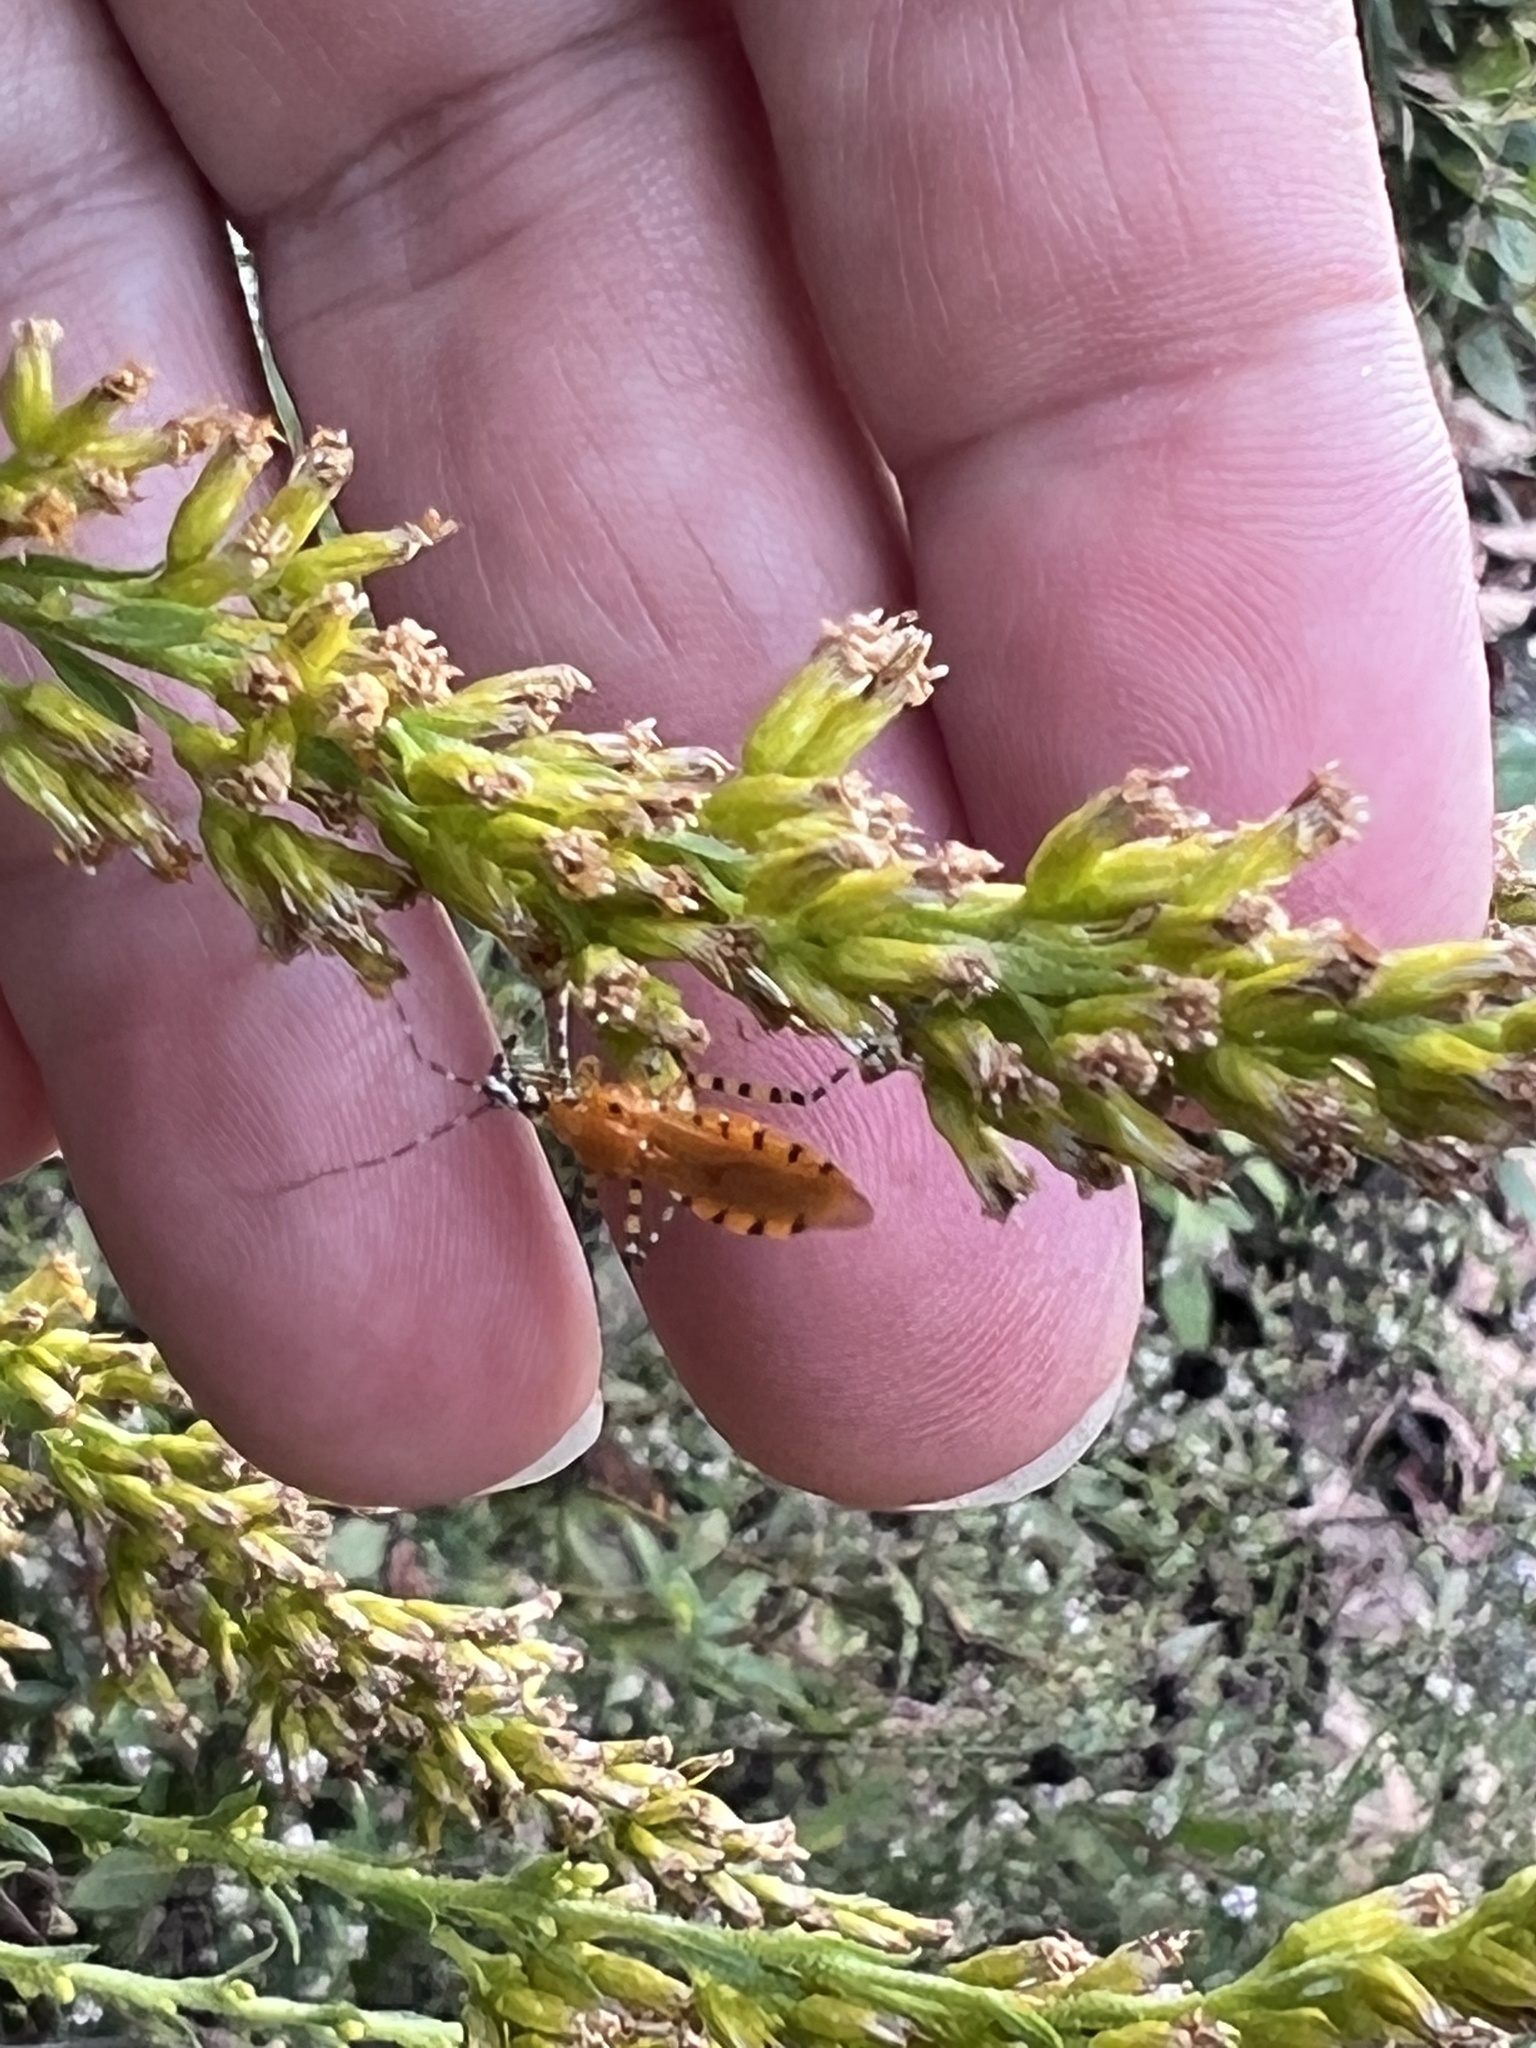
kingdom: Animalia
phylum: Arthropoda
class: Insecta
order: Hemiptera
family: Reduviidae
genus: Pselliopus
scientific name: Pselliopus barberi
